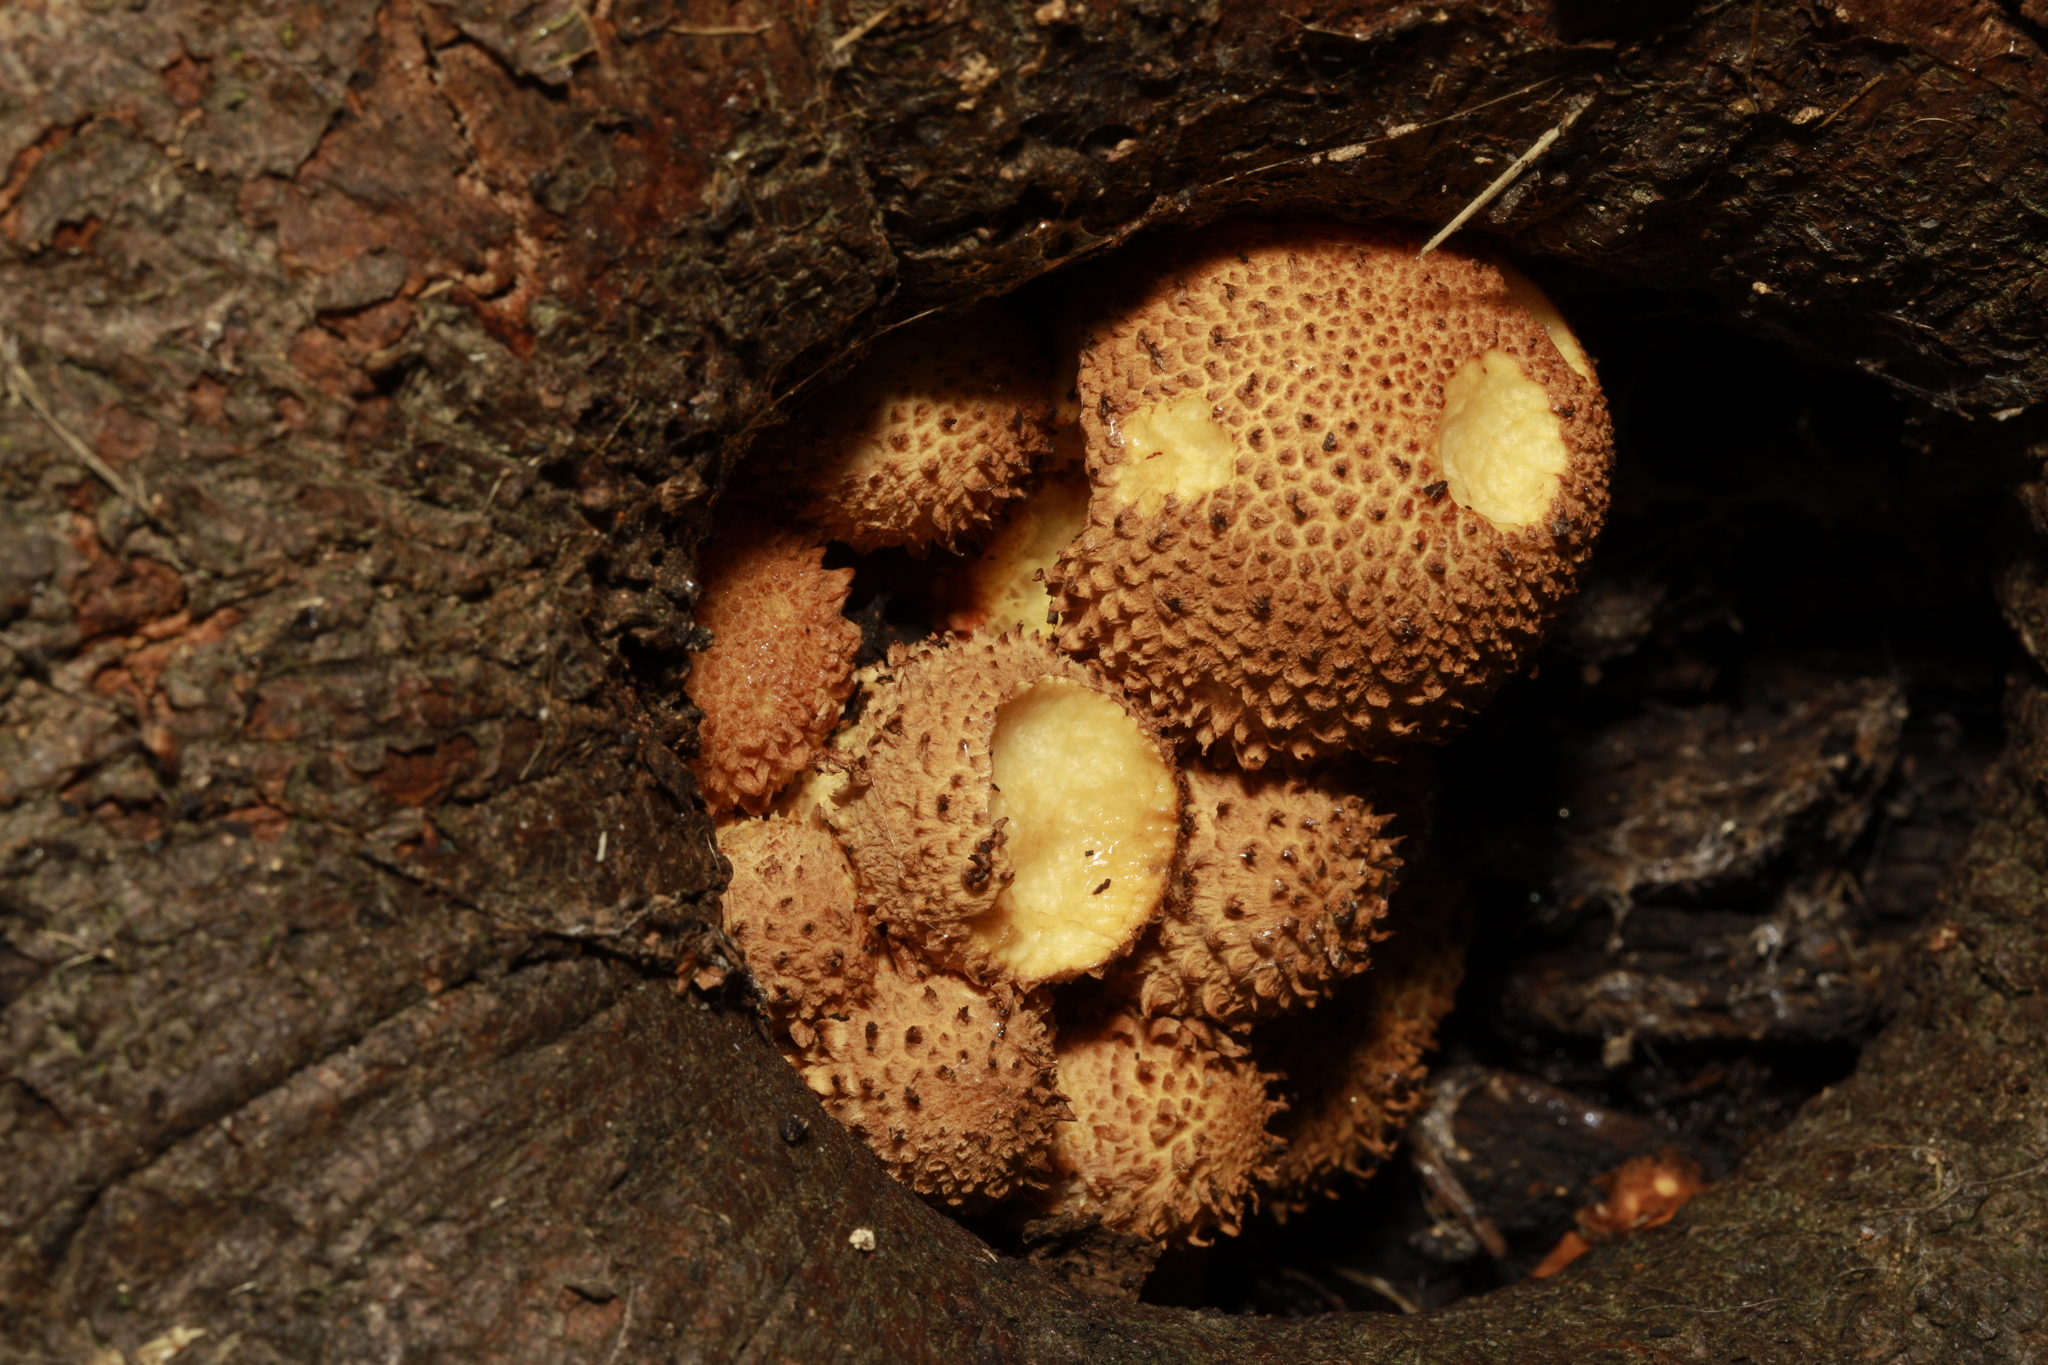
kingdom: Fungi
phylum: Basidiomycota
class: Agaricomycetes
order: Agaricales
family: Strophariaceae
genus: Pholiota
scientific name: Pholiota squarrosa
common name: Shaggy pholiota
